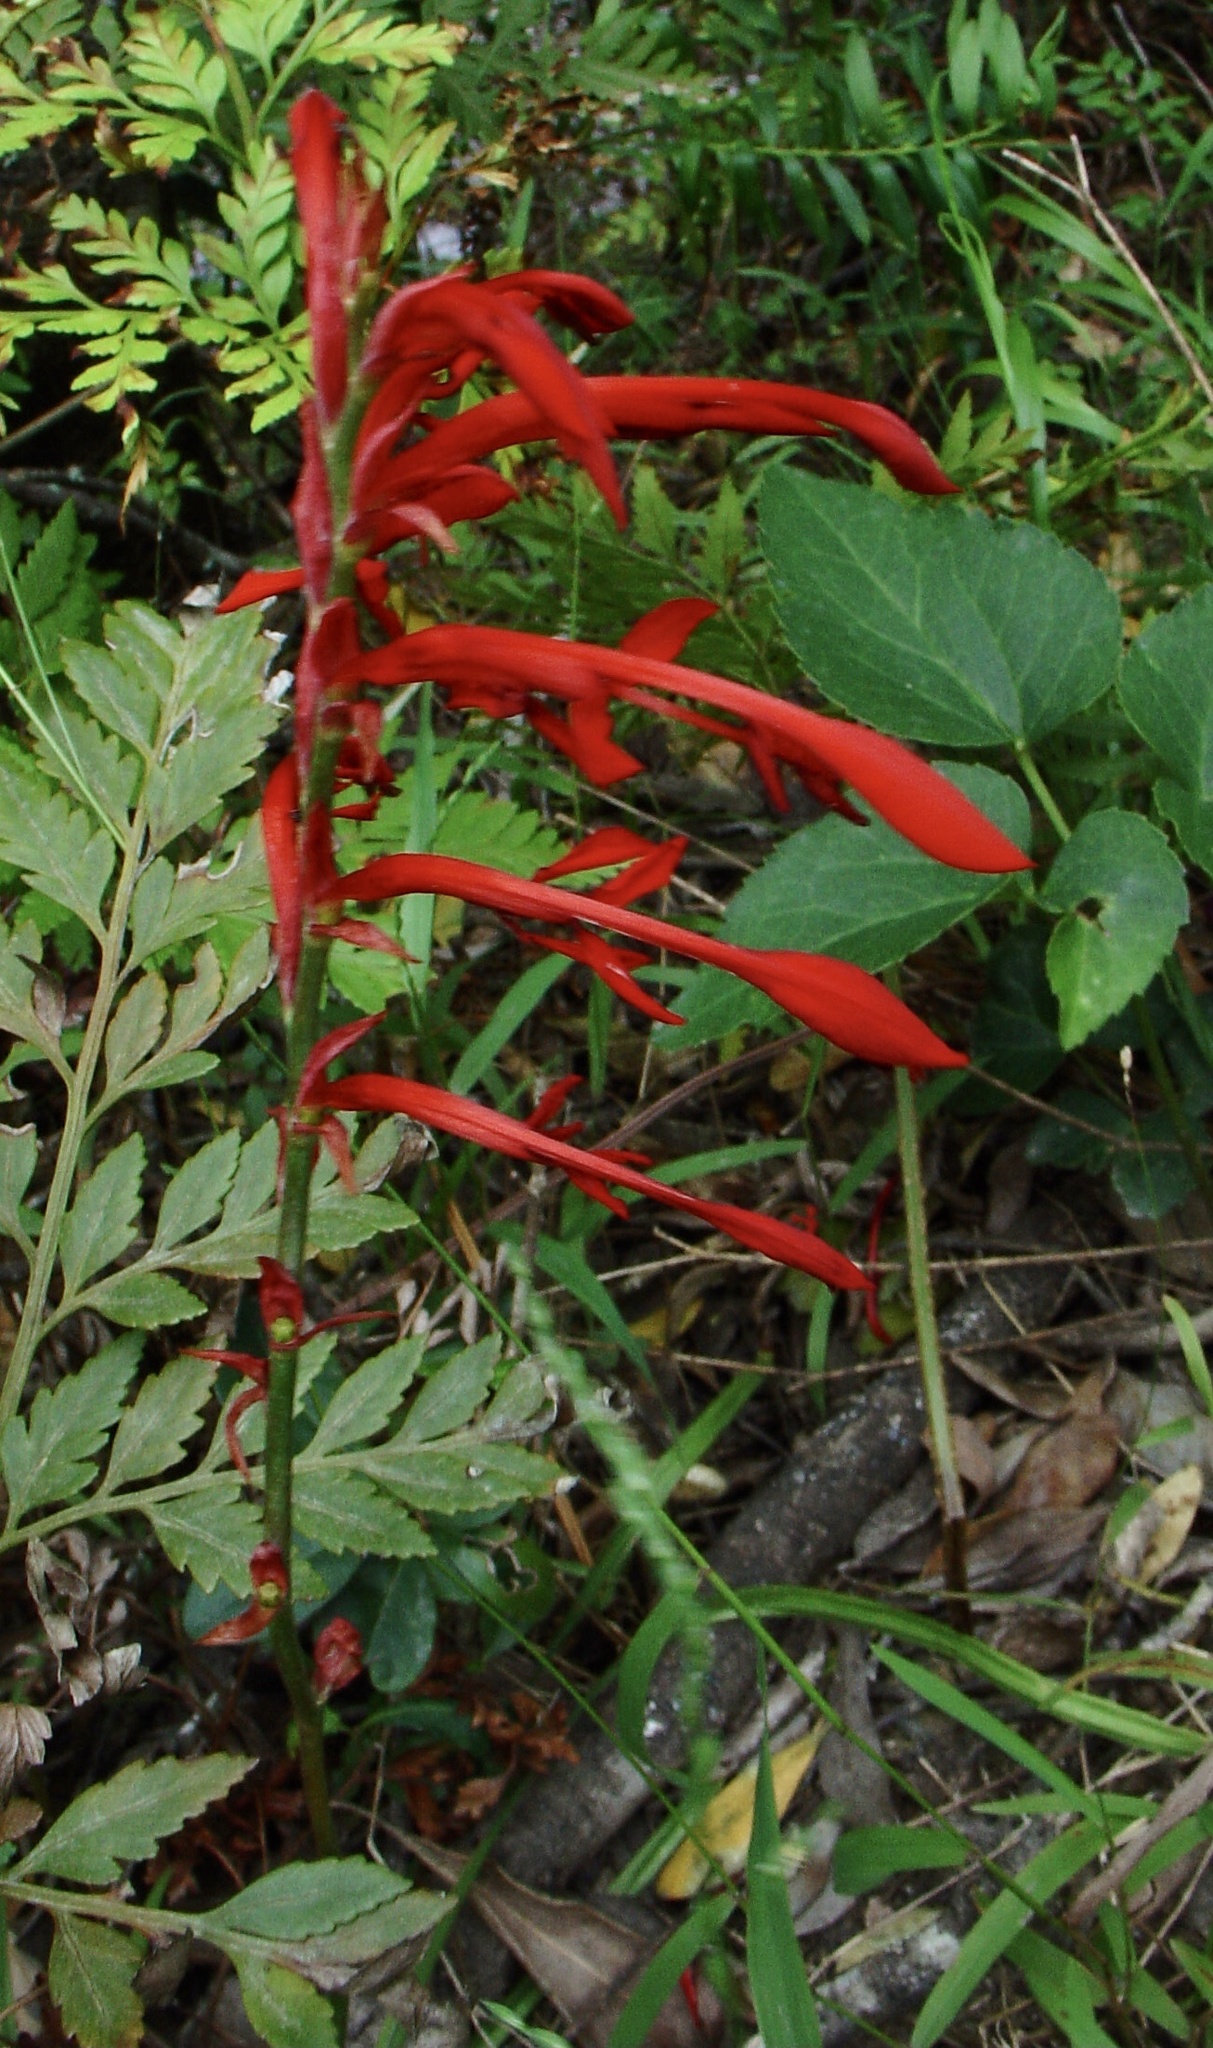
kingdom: Plantae
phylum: Tracheophyta
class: Liliopsida
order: Asparagales
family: Iridaceae
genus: Tritoniopsis
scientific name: Tritoniopsis caffra
